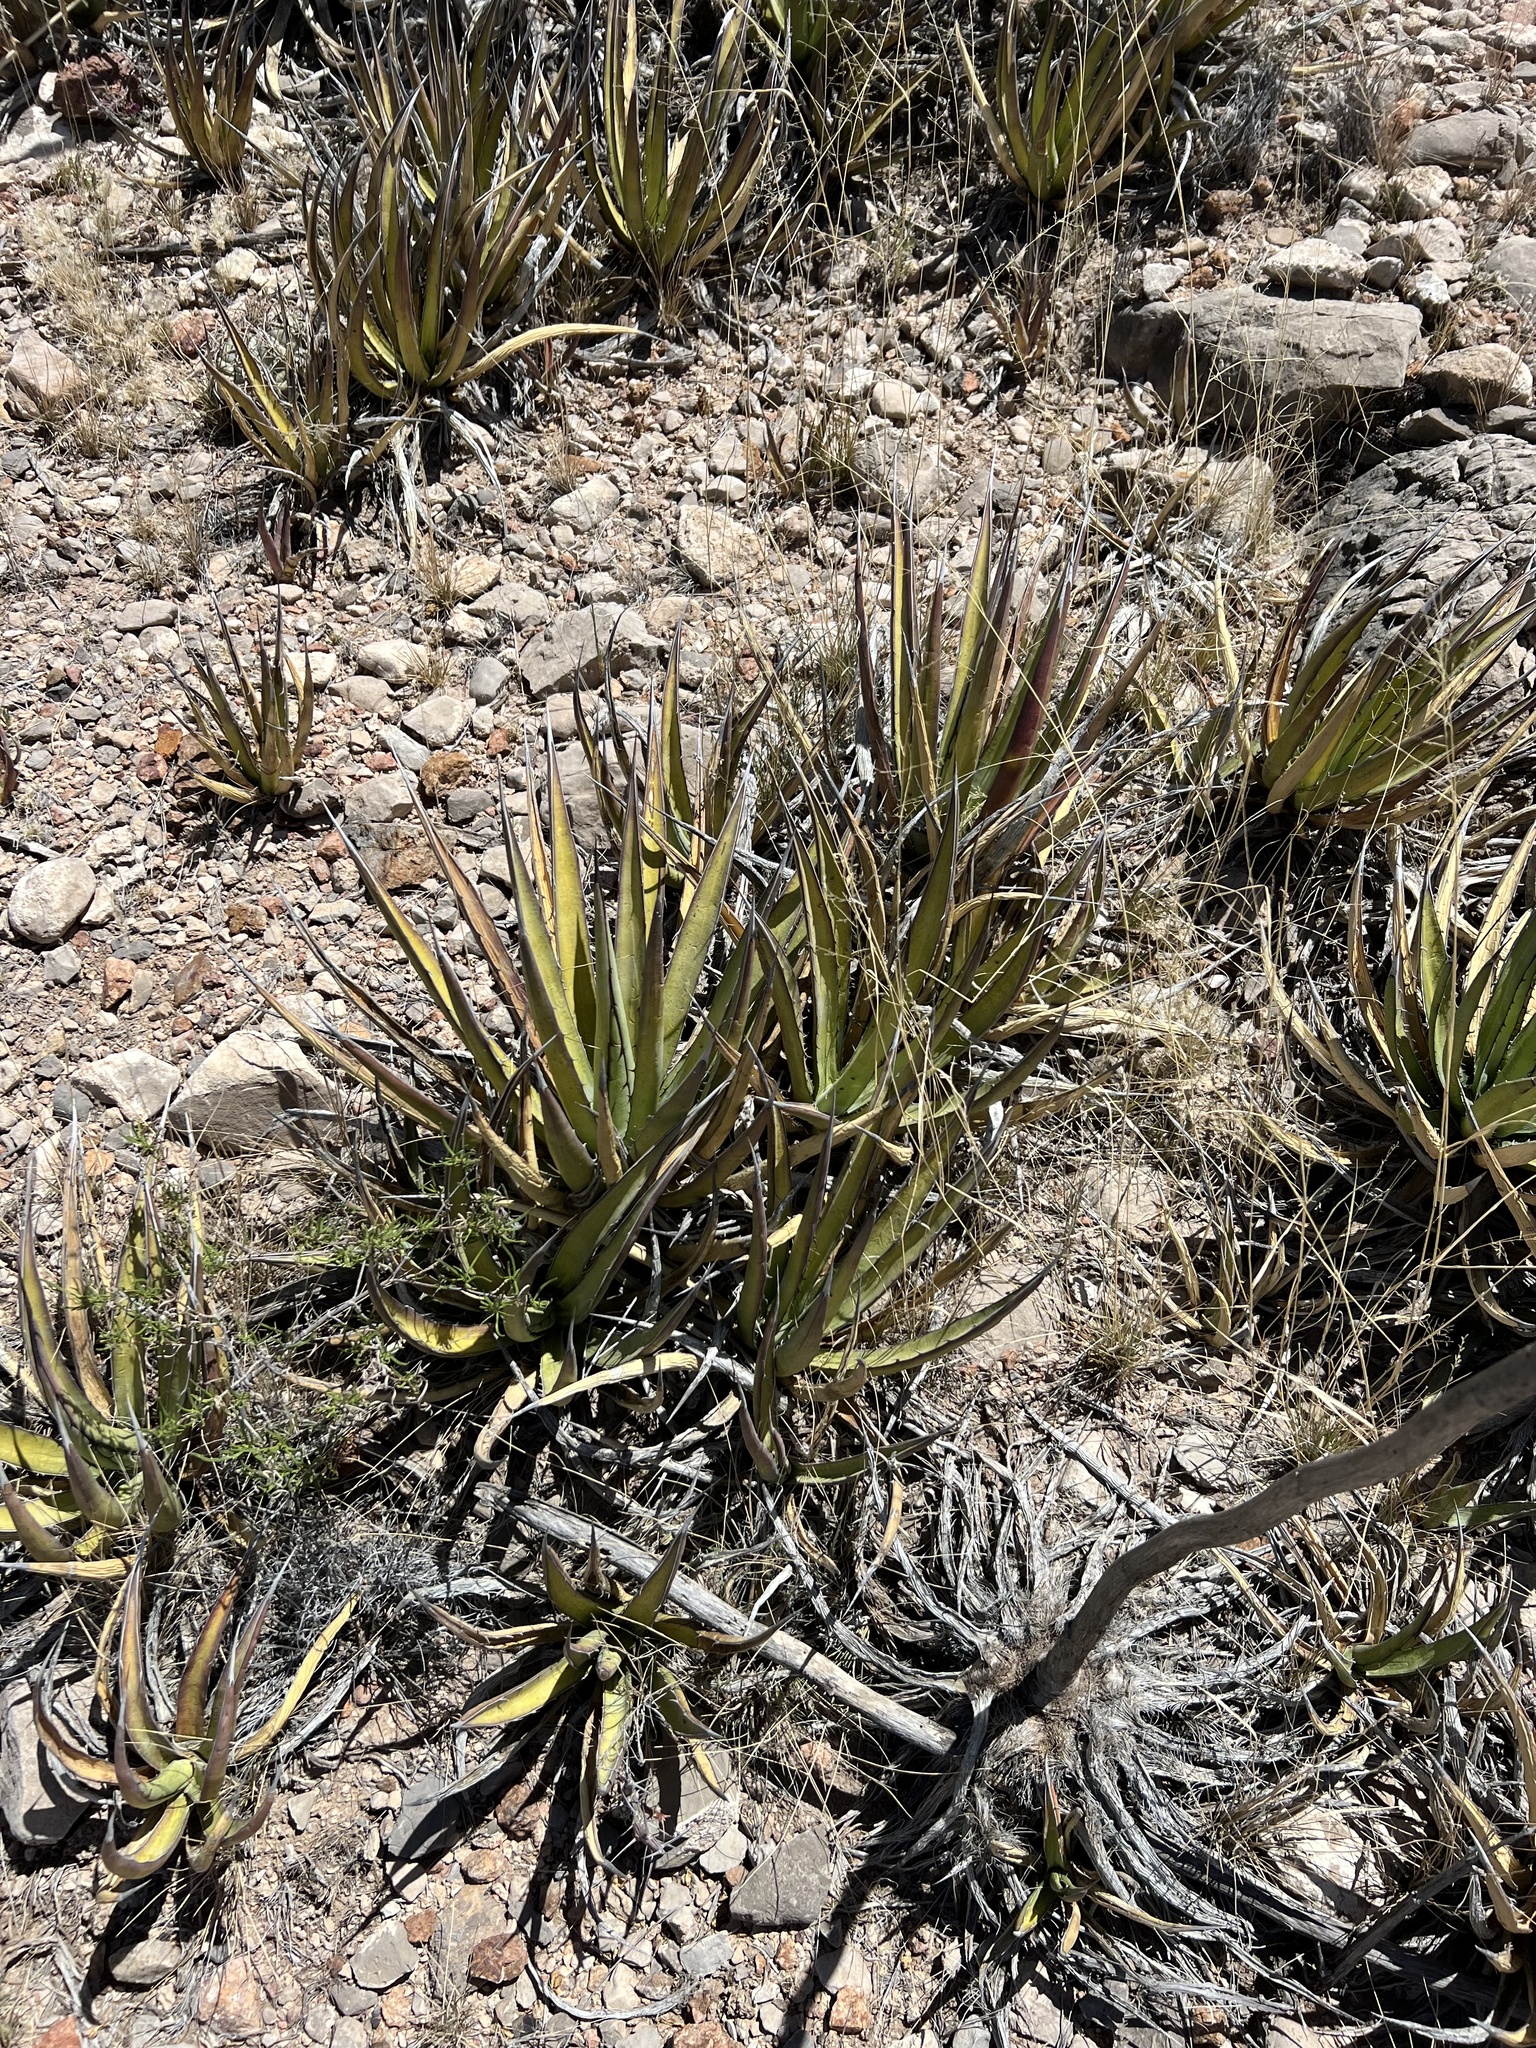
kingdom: Plantae
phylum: Tracheophyta
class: Liliopsida
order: Asparagales
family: Asparagaceae
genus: Agave
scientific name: Agave lechuguilla
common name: Lecheguilla agave
